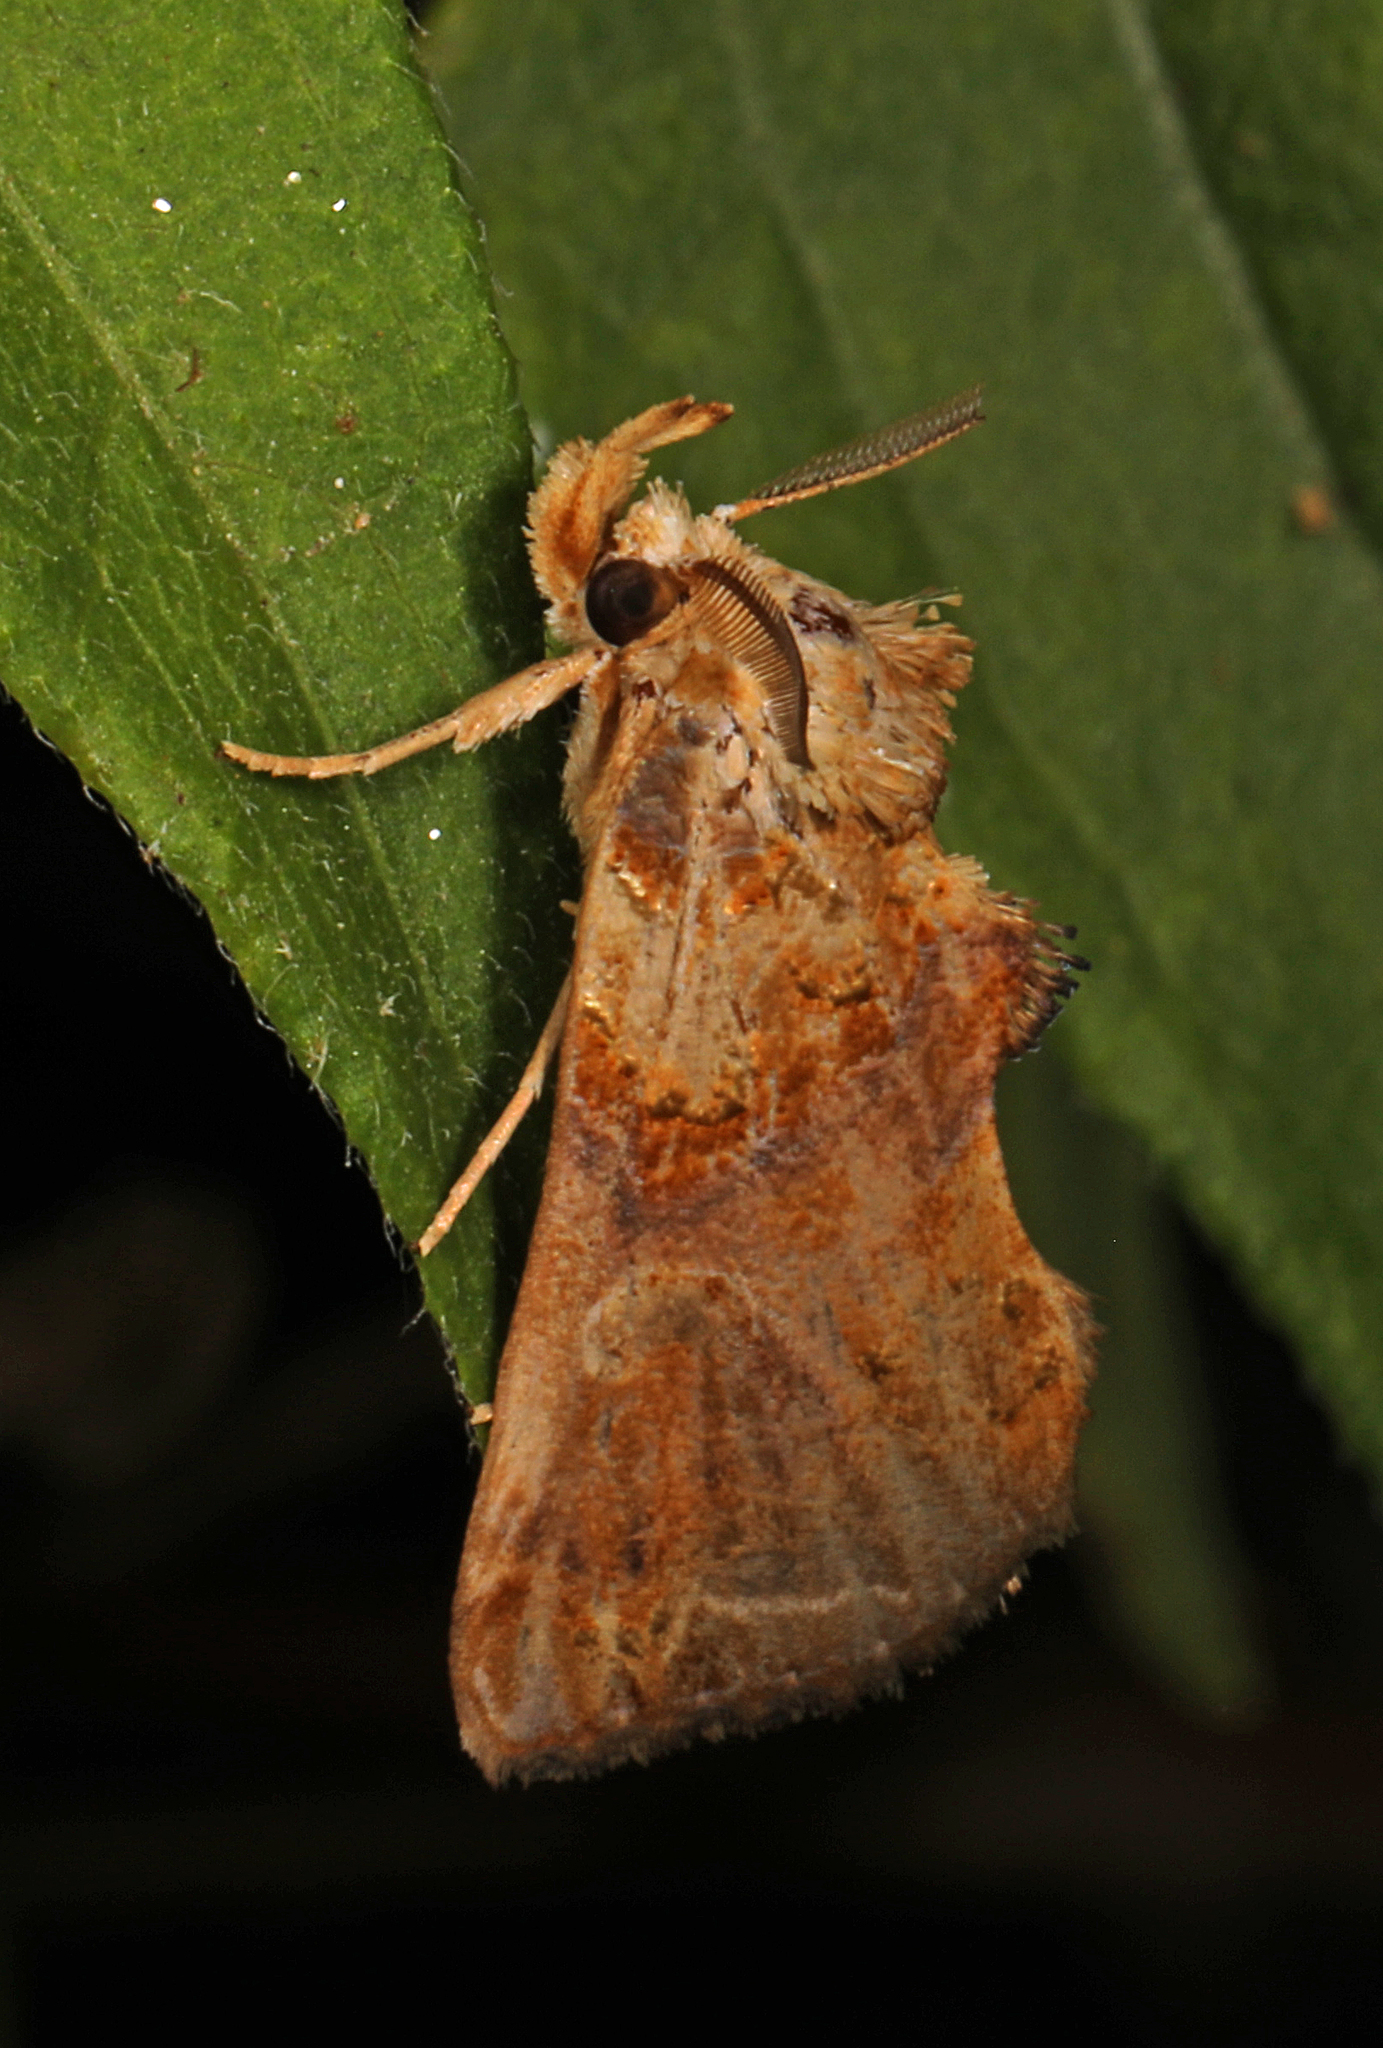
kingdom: Animalia
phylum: Arthropoda
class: Insecta
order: Lepidoptera
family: Erebidae
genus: Plusiodonta
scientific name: Plusiodonta compressipalpis
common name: Moonseed moth
